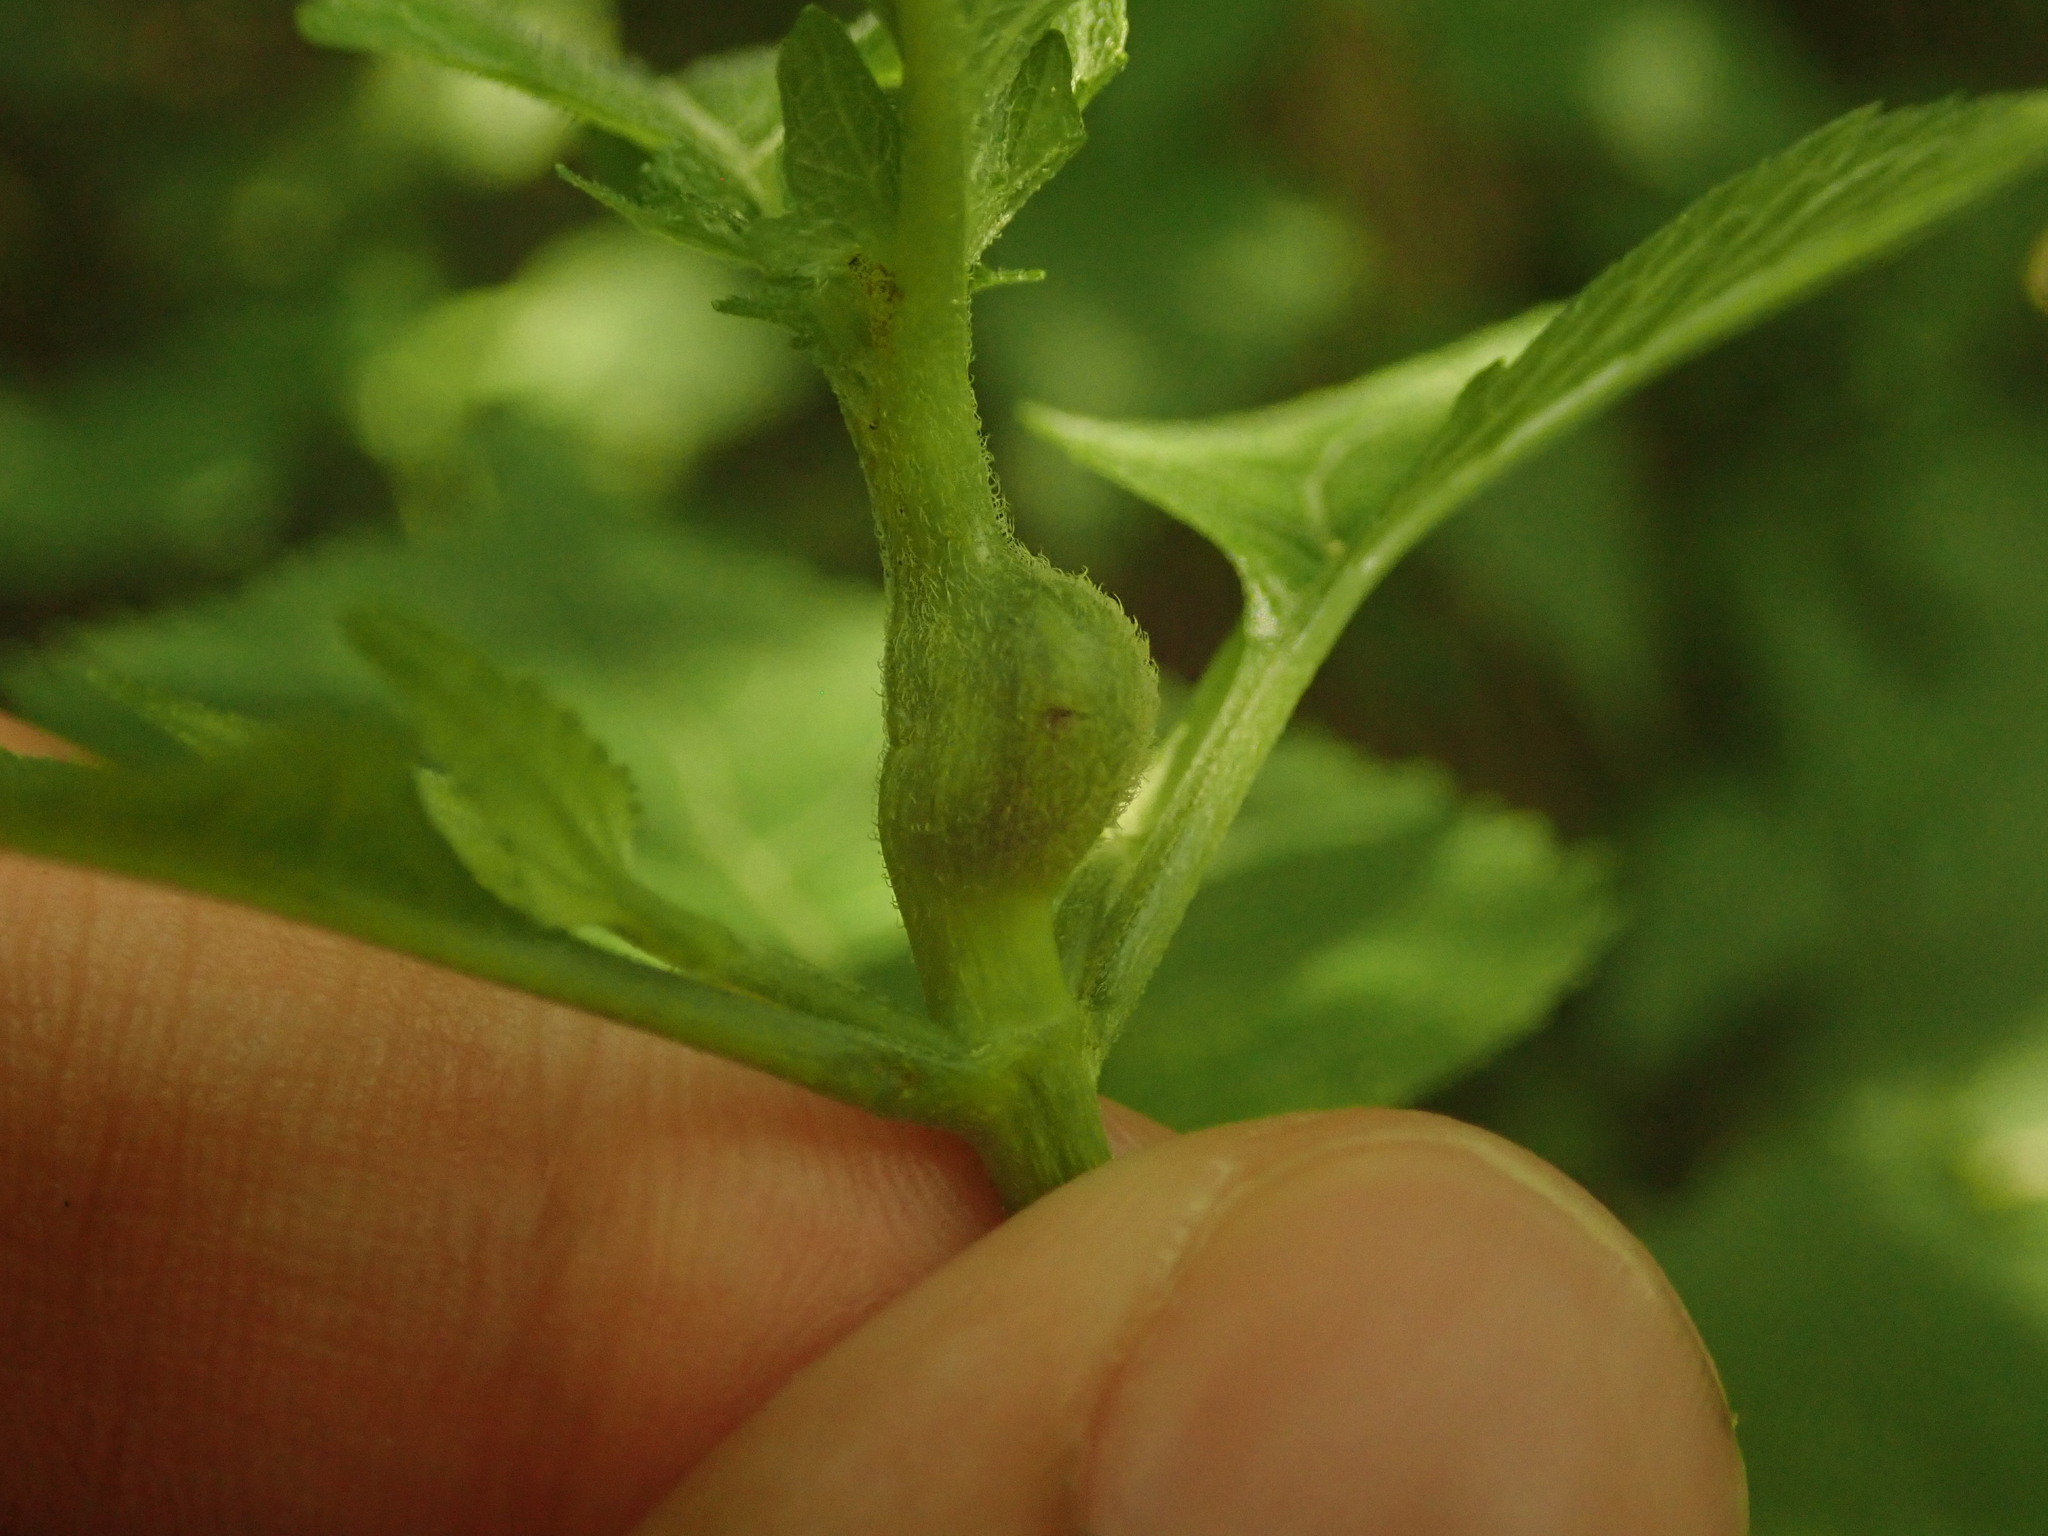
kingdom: Animalia
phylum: Arthropoda
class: Insecta
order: Diptera
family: Cecidomyiidae
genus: Asphondylia
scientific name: Asphondylia eupatorii
